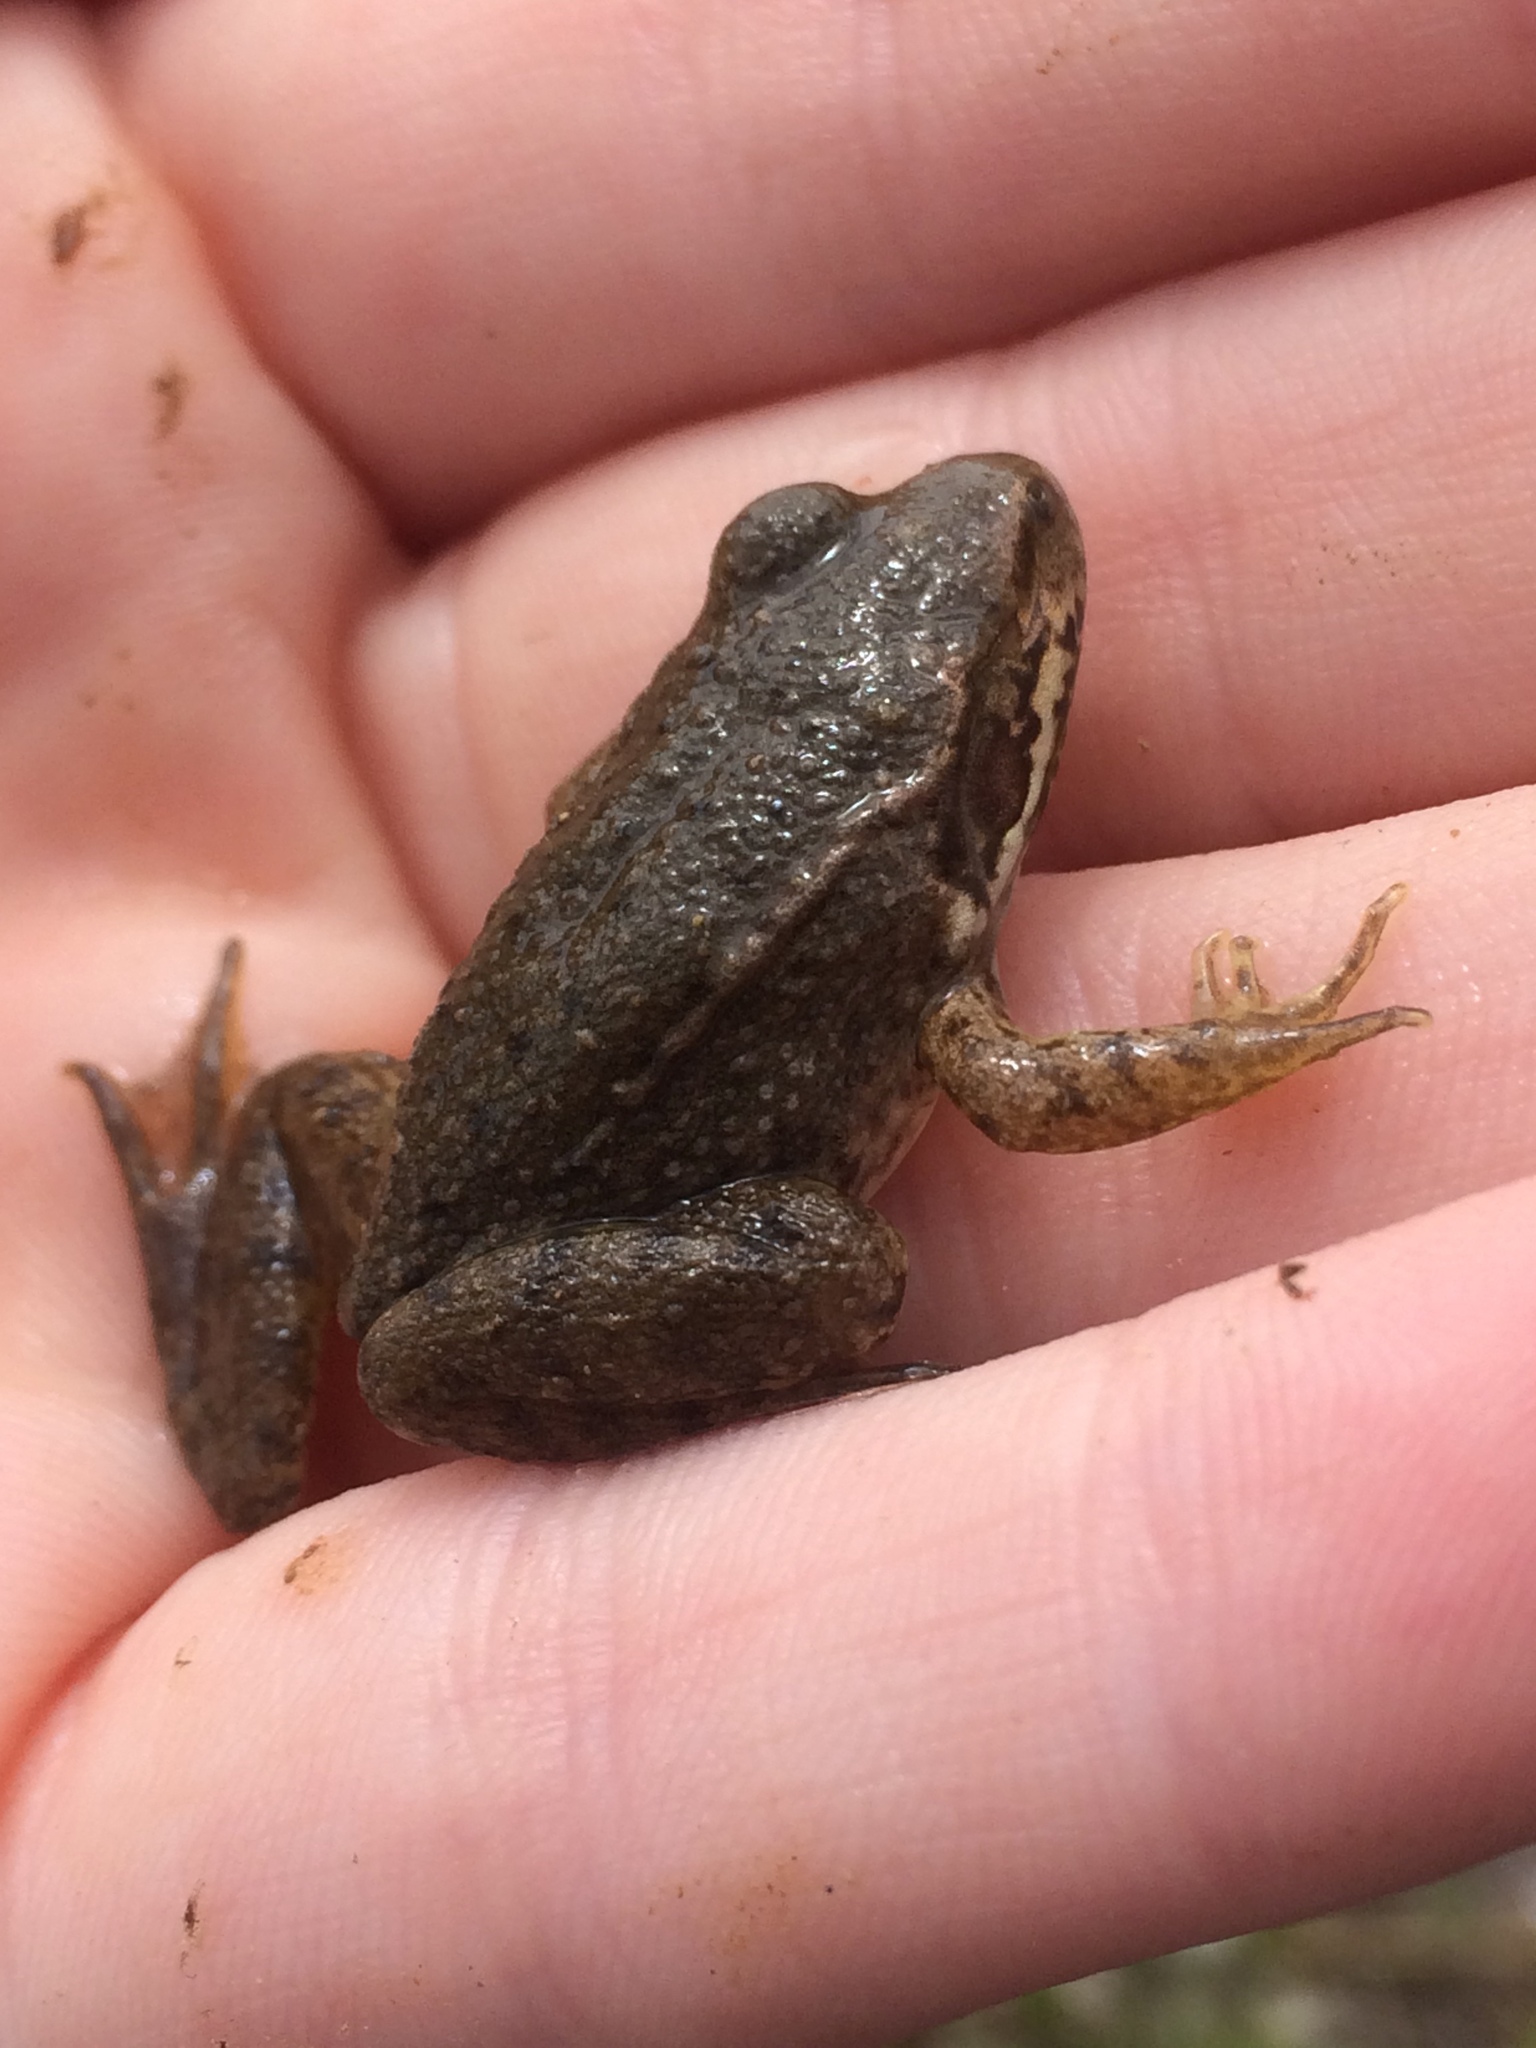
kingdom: Animalia
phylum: Chordata
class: Amphibia
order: Anura
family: Ranidae
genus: Lithobates
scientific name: Lithobates clamitans
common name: Green frog
